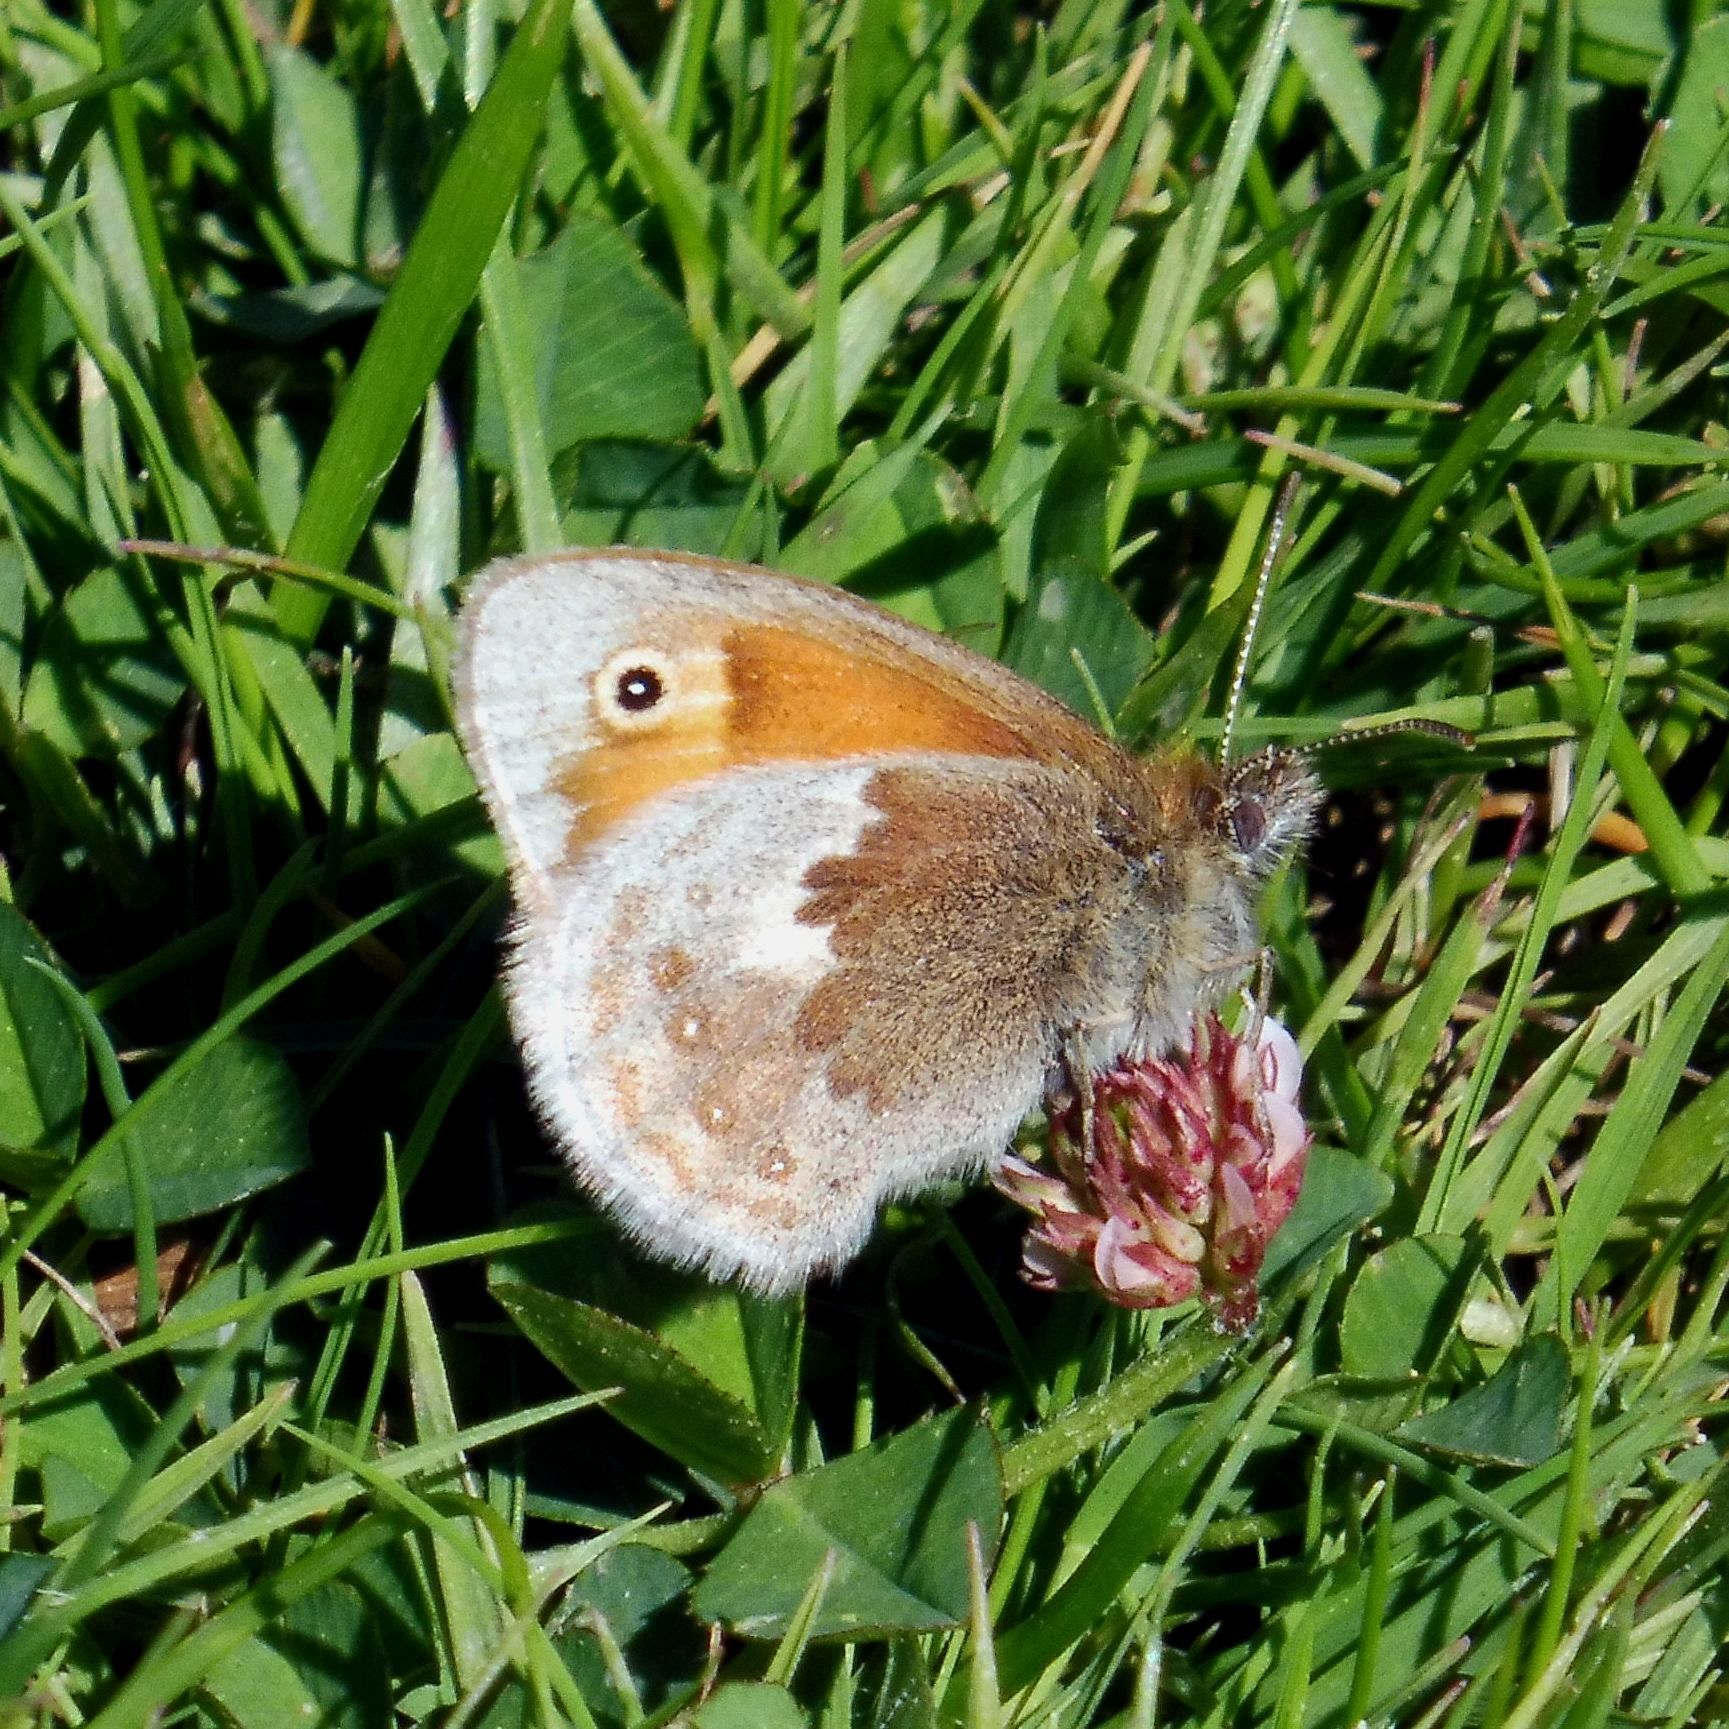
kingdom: Animalia
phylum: Arthropoda
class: Insecta
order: Lepidoptera
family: Nymphalidae
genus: Coenonympha
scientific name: Coenonympha pamphilus
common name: Small heath
